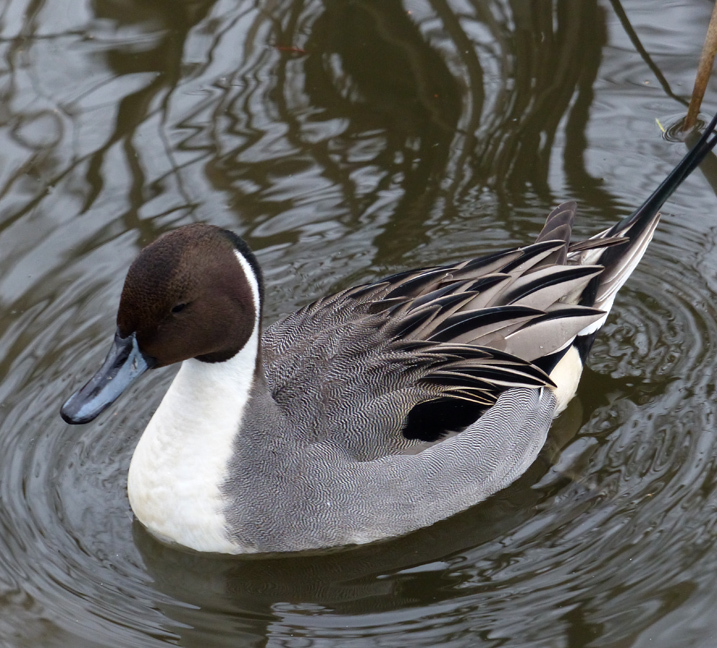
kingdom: Animalia
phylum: Chordata
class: Aves
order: Anseriformes
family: Anatidae
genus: Anas
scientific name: Anas acuta
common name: Northern pintail
